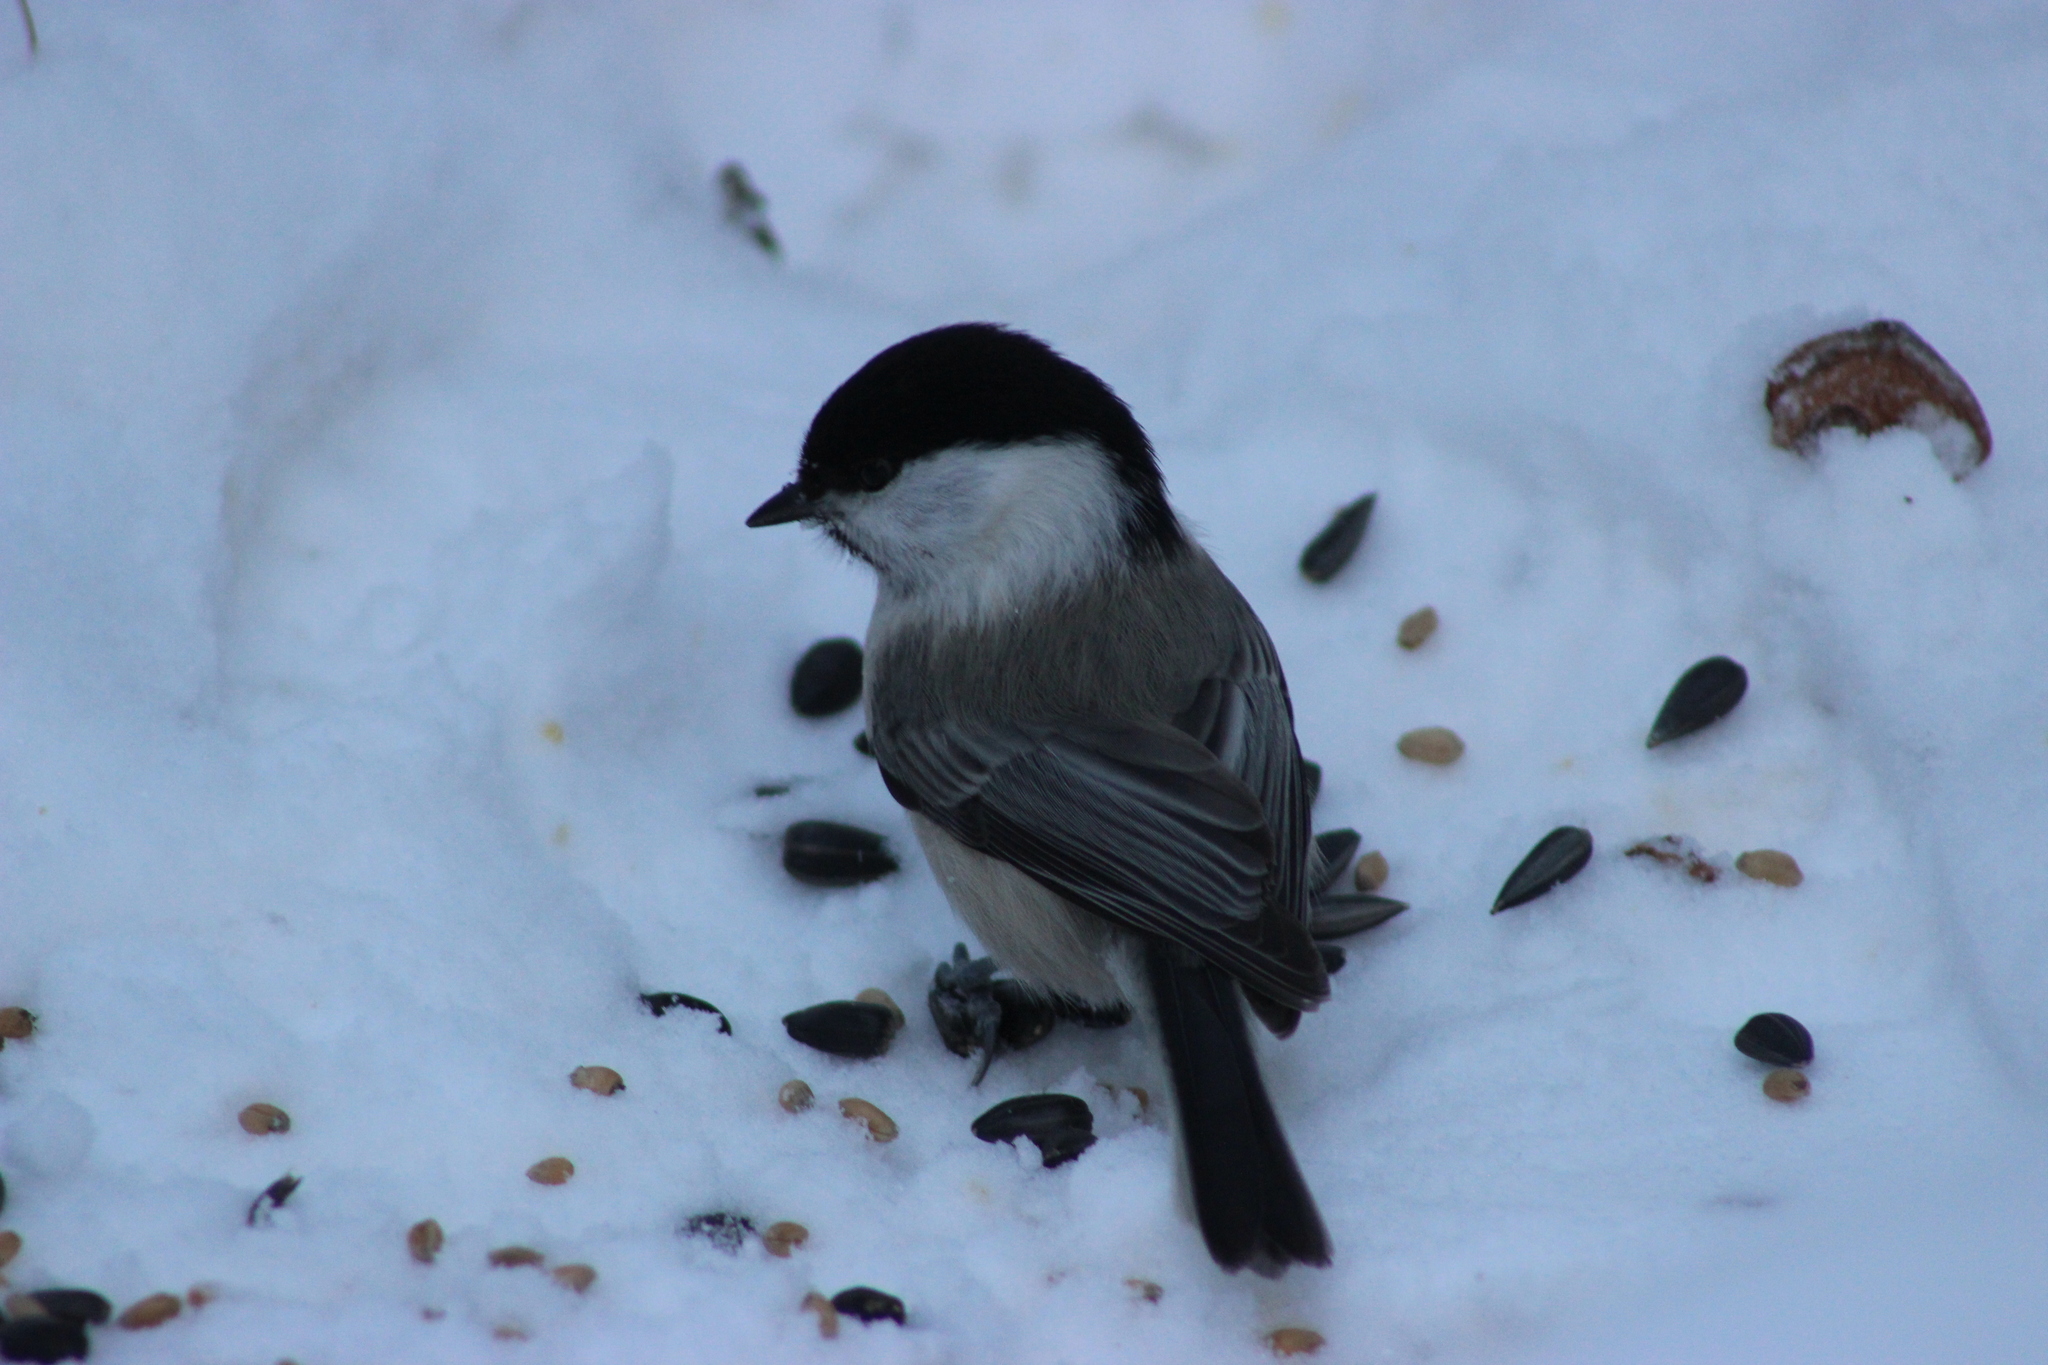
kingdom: Animalia
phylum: Chordata
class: Aves
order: Passeriformes
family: Paridae
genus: Poecile
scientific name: Poecile montanus
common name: Willow tit
